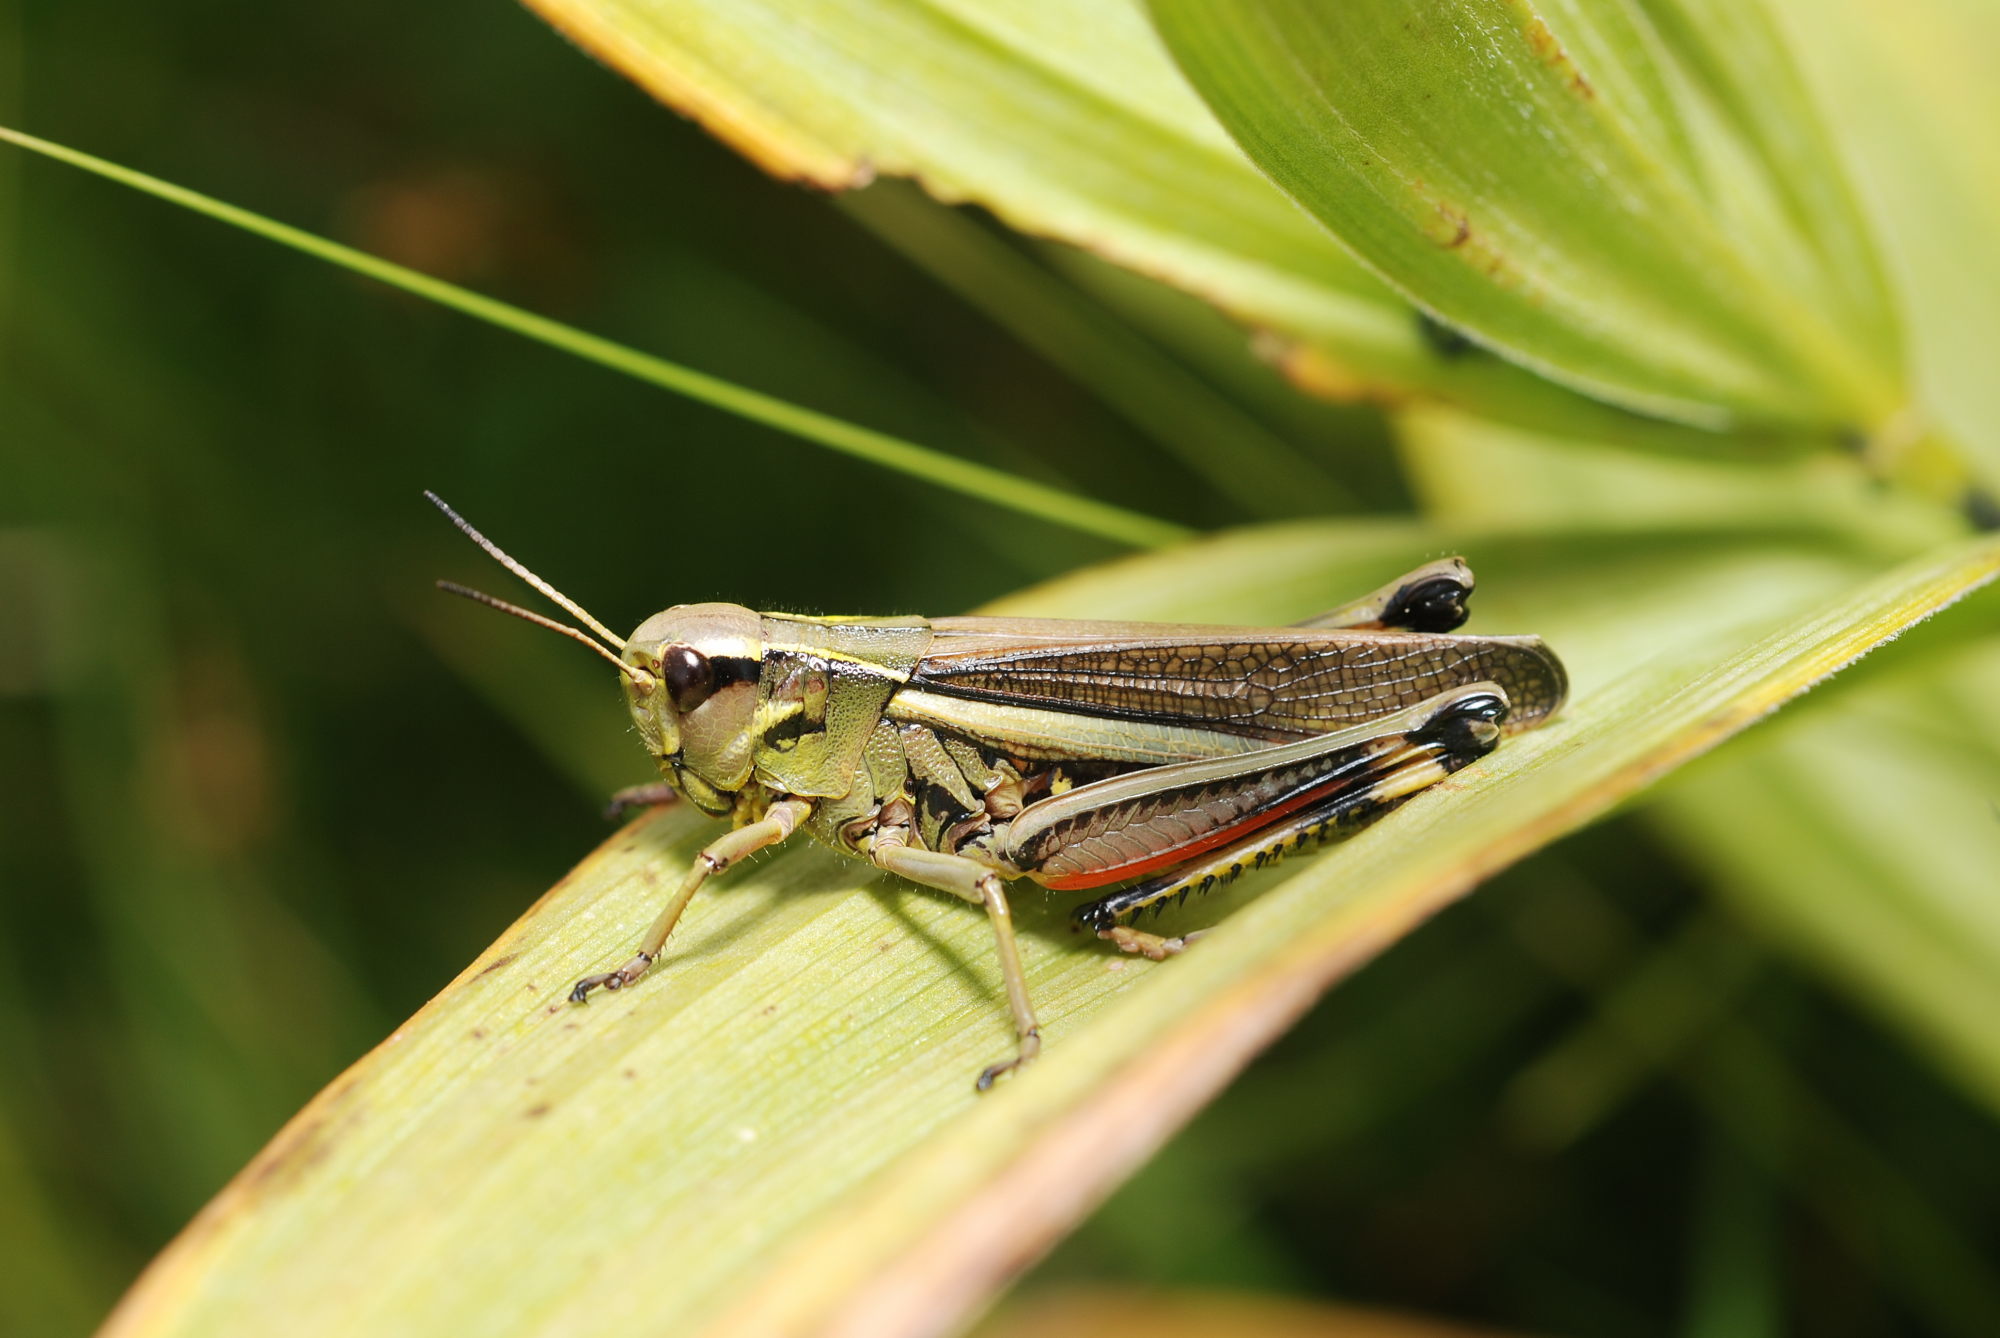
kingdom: Animalia
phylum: Arthropoda
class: Insecta
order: Orthoptera
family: Acrididae
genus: Stethophyma
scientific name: Stethophyma grossum
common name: Large marsh grasshopper
